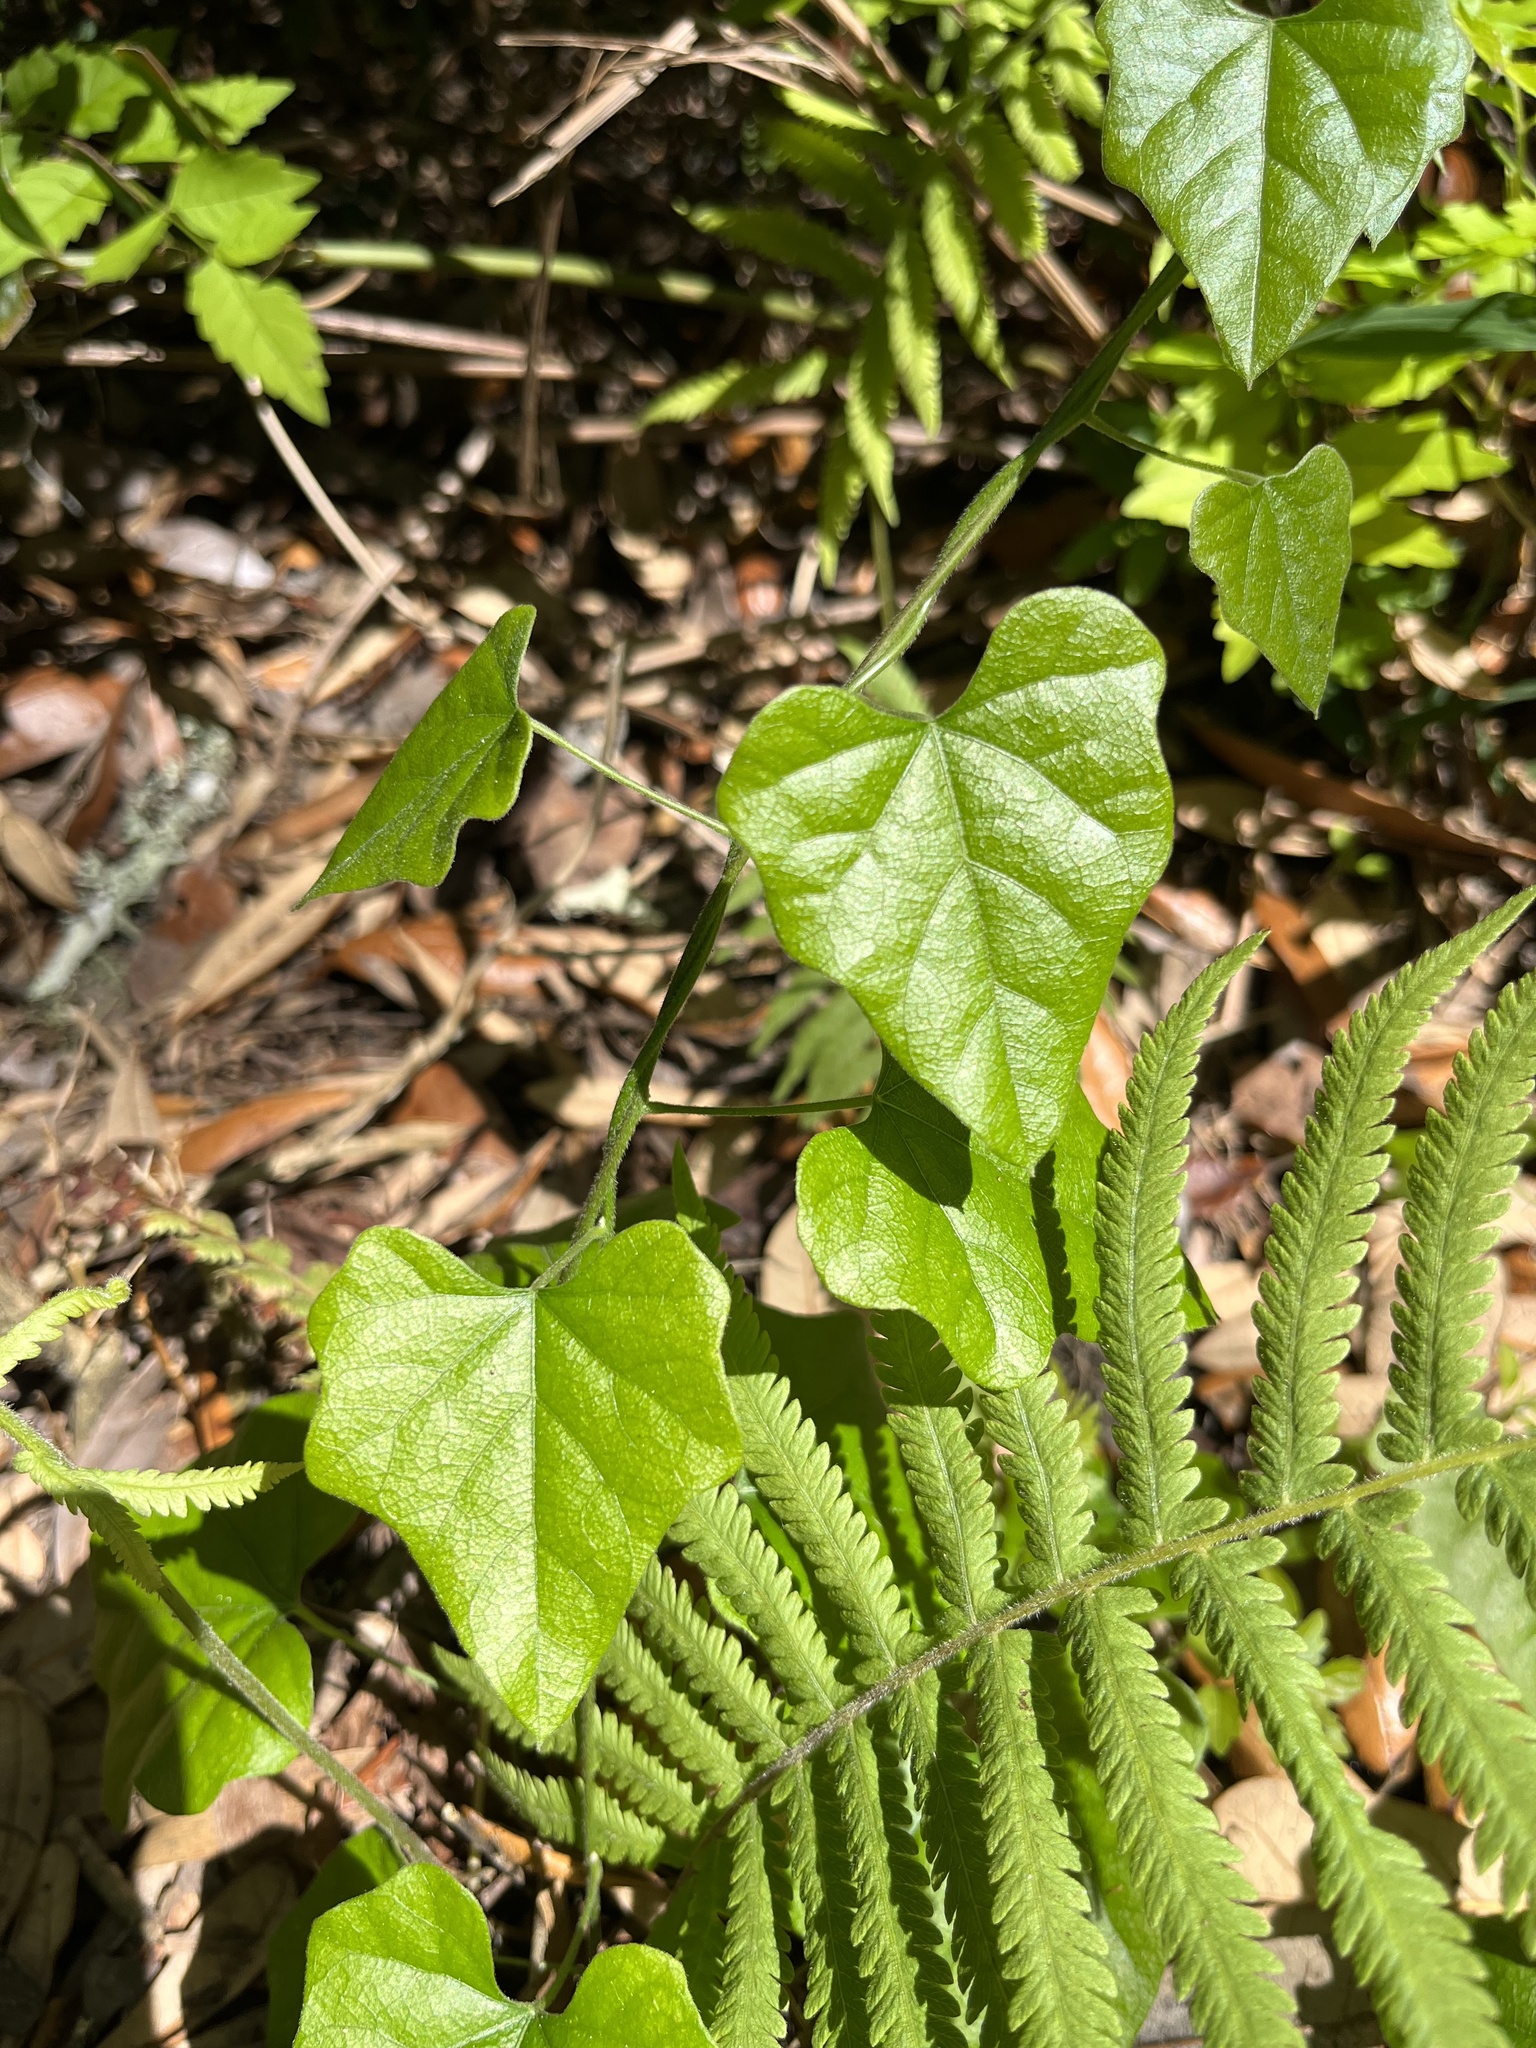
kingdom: Plantae
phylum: Tracheophyta
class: Magnoliopsida
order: Cucurbitales
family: Cucurbitaceae
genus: Melothria
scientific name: Melothria pendula
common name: Creeping-cucumber
